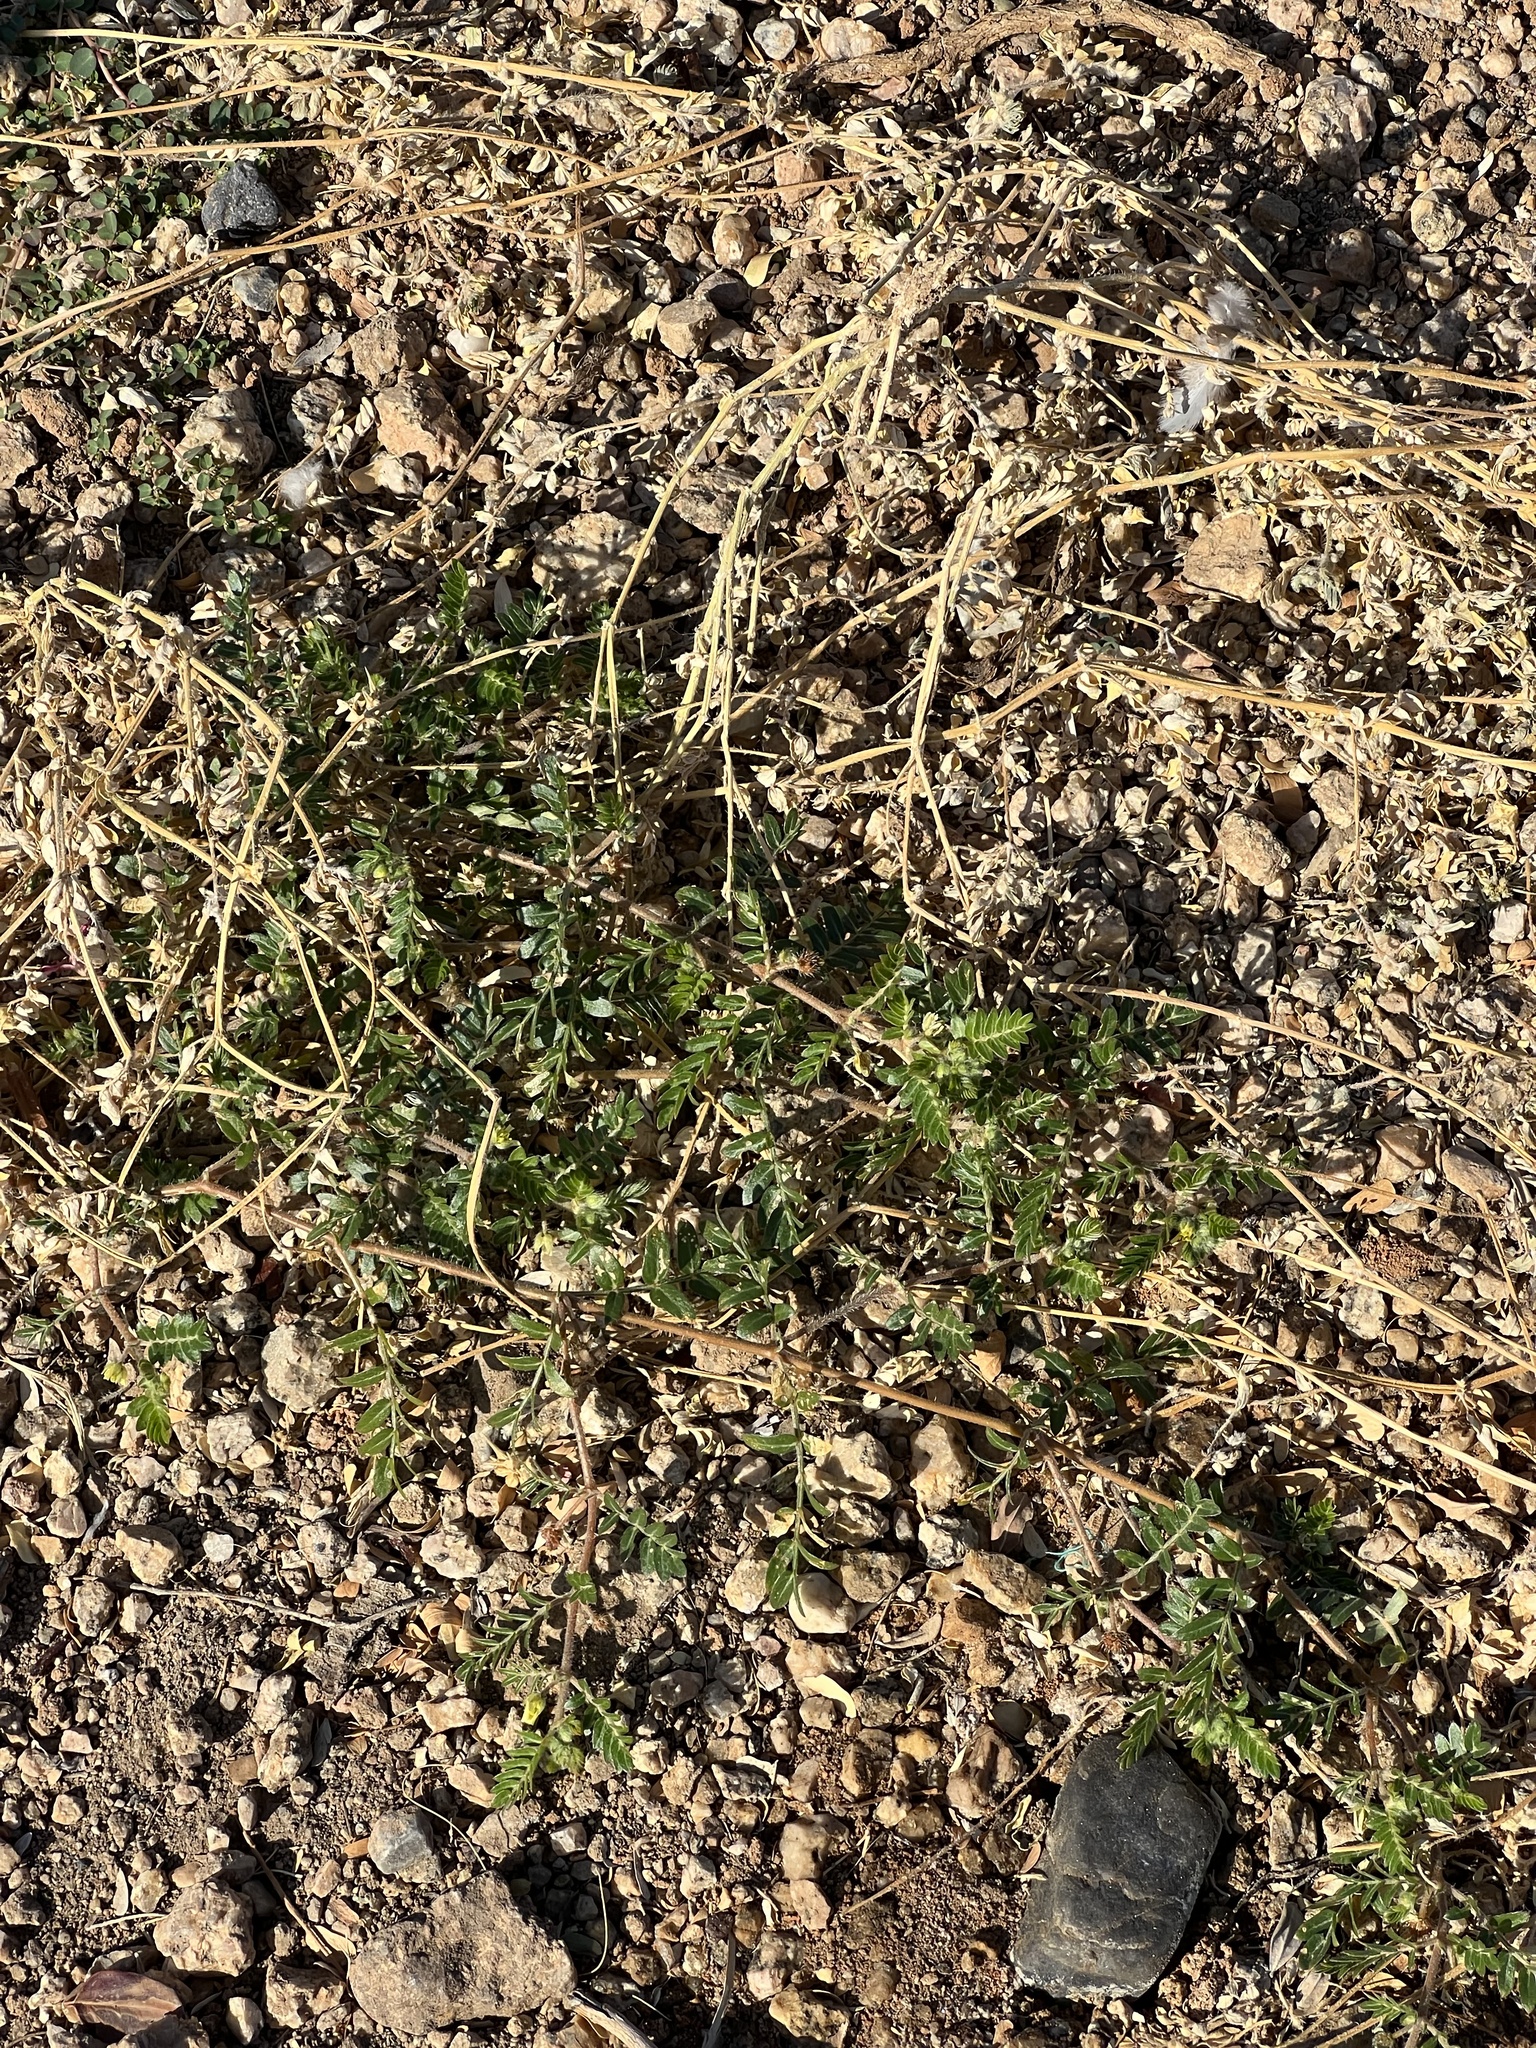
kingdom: Plantae
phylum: Tracheophyta
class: Magnoliopsida
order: Zygophyllales
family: Zygophyllaceae
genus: Tribulus
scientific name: Tribulus terrestris
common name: Puncturevine
